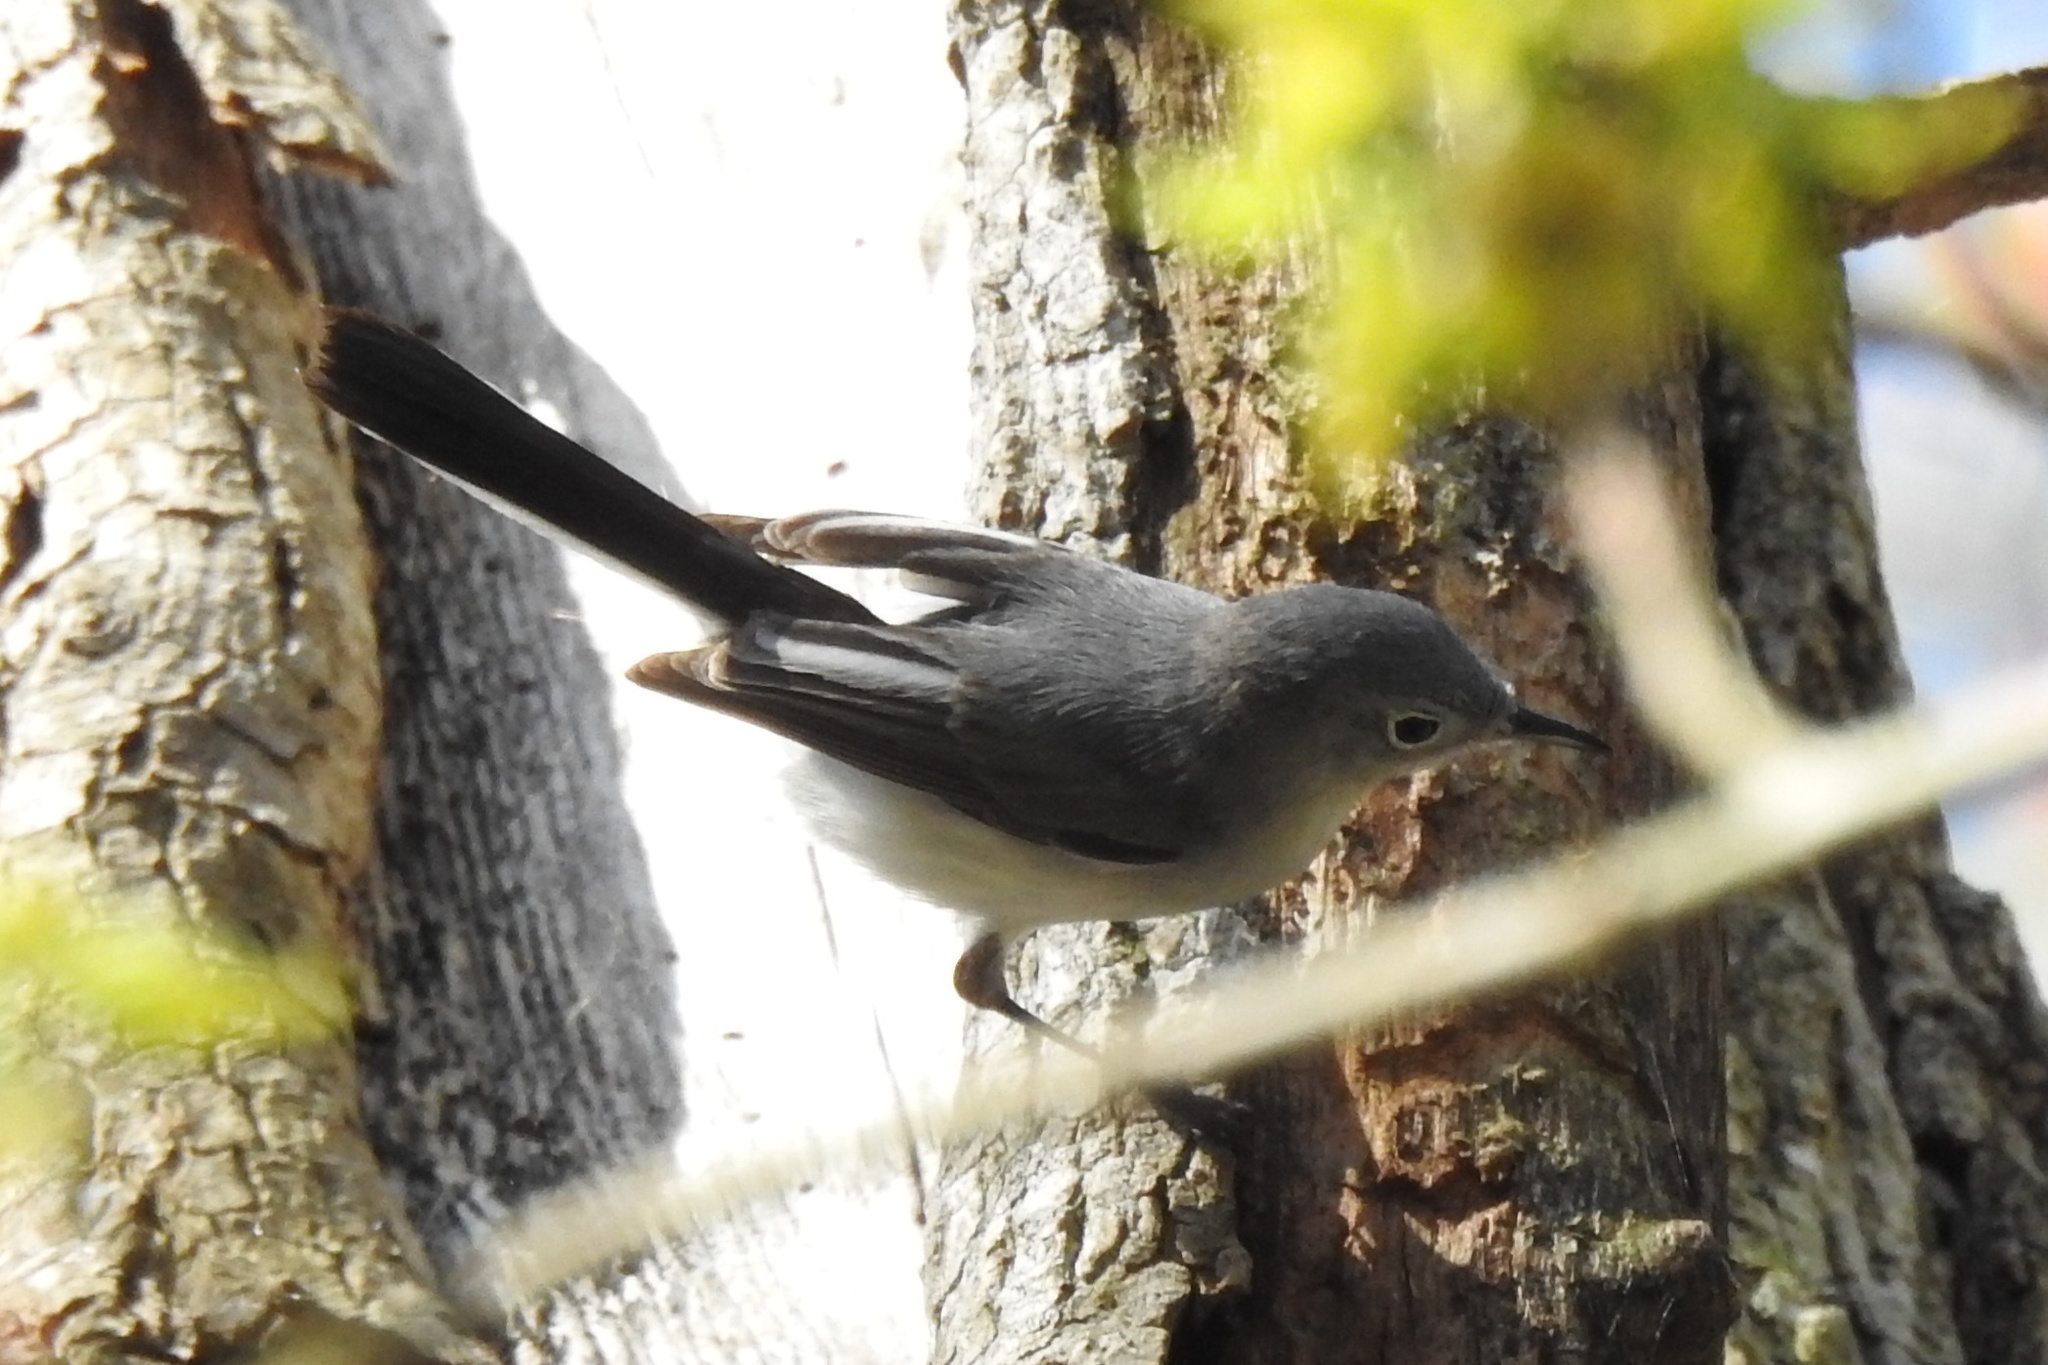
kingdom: Animalia
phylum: Chordata
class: Aves
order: Passeriformes
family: Polioptilidae
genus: Polioptila
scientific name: Polioptila caerulea
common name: Blue-gray gnatcatcher
